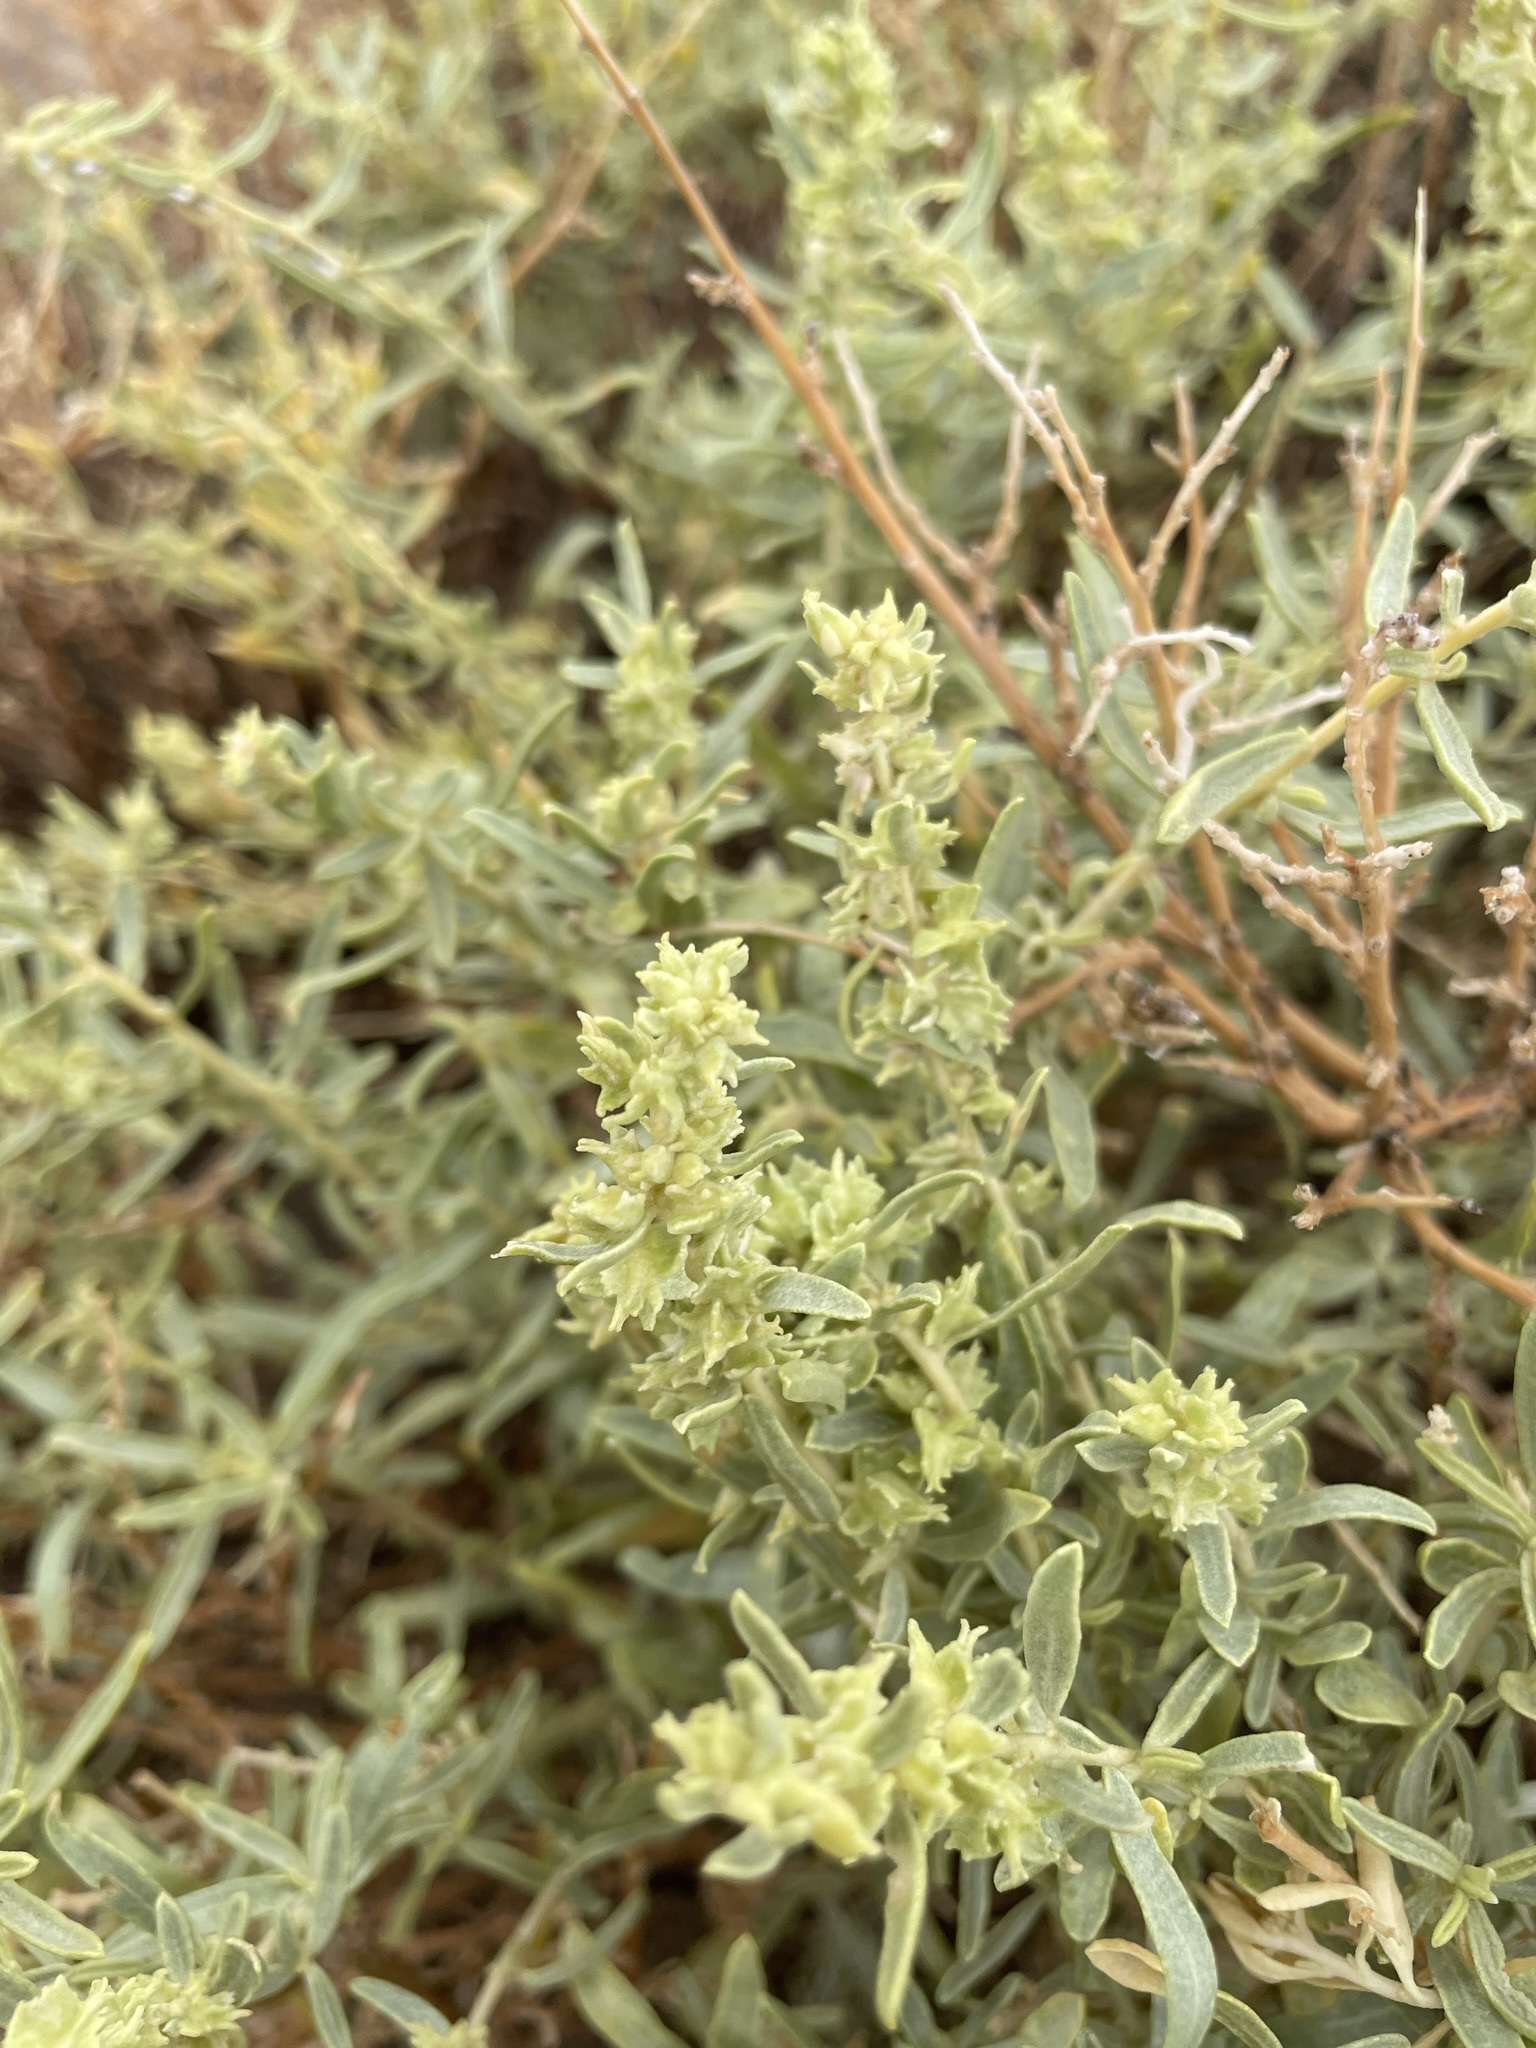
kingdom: Plantae
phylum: Tracheophyta
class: Magnoliopsida
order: Caryophyllales
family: Amaranthaceae
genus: Atriplex
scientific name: Atriplex canescens
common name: Four-wing saltbush
